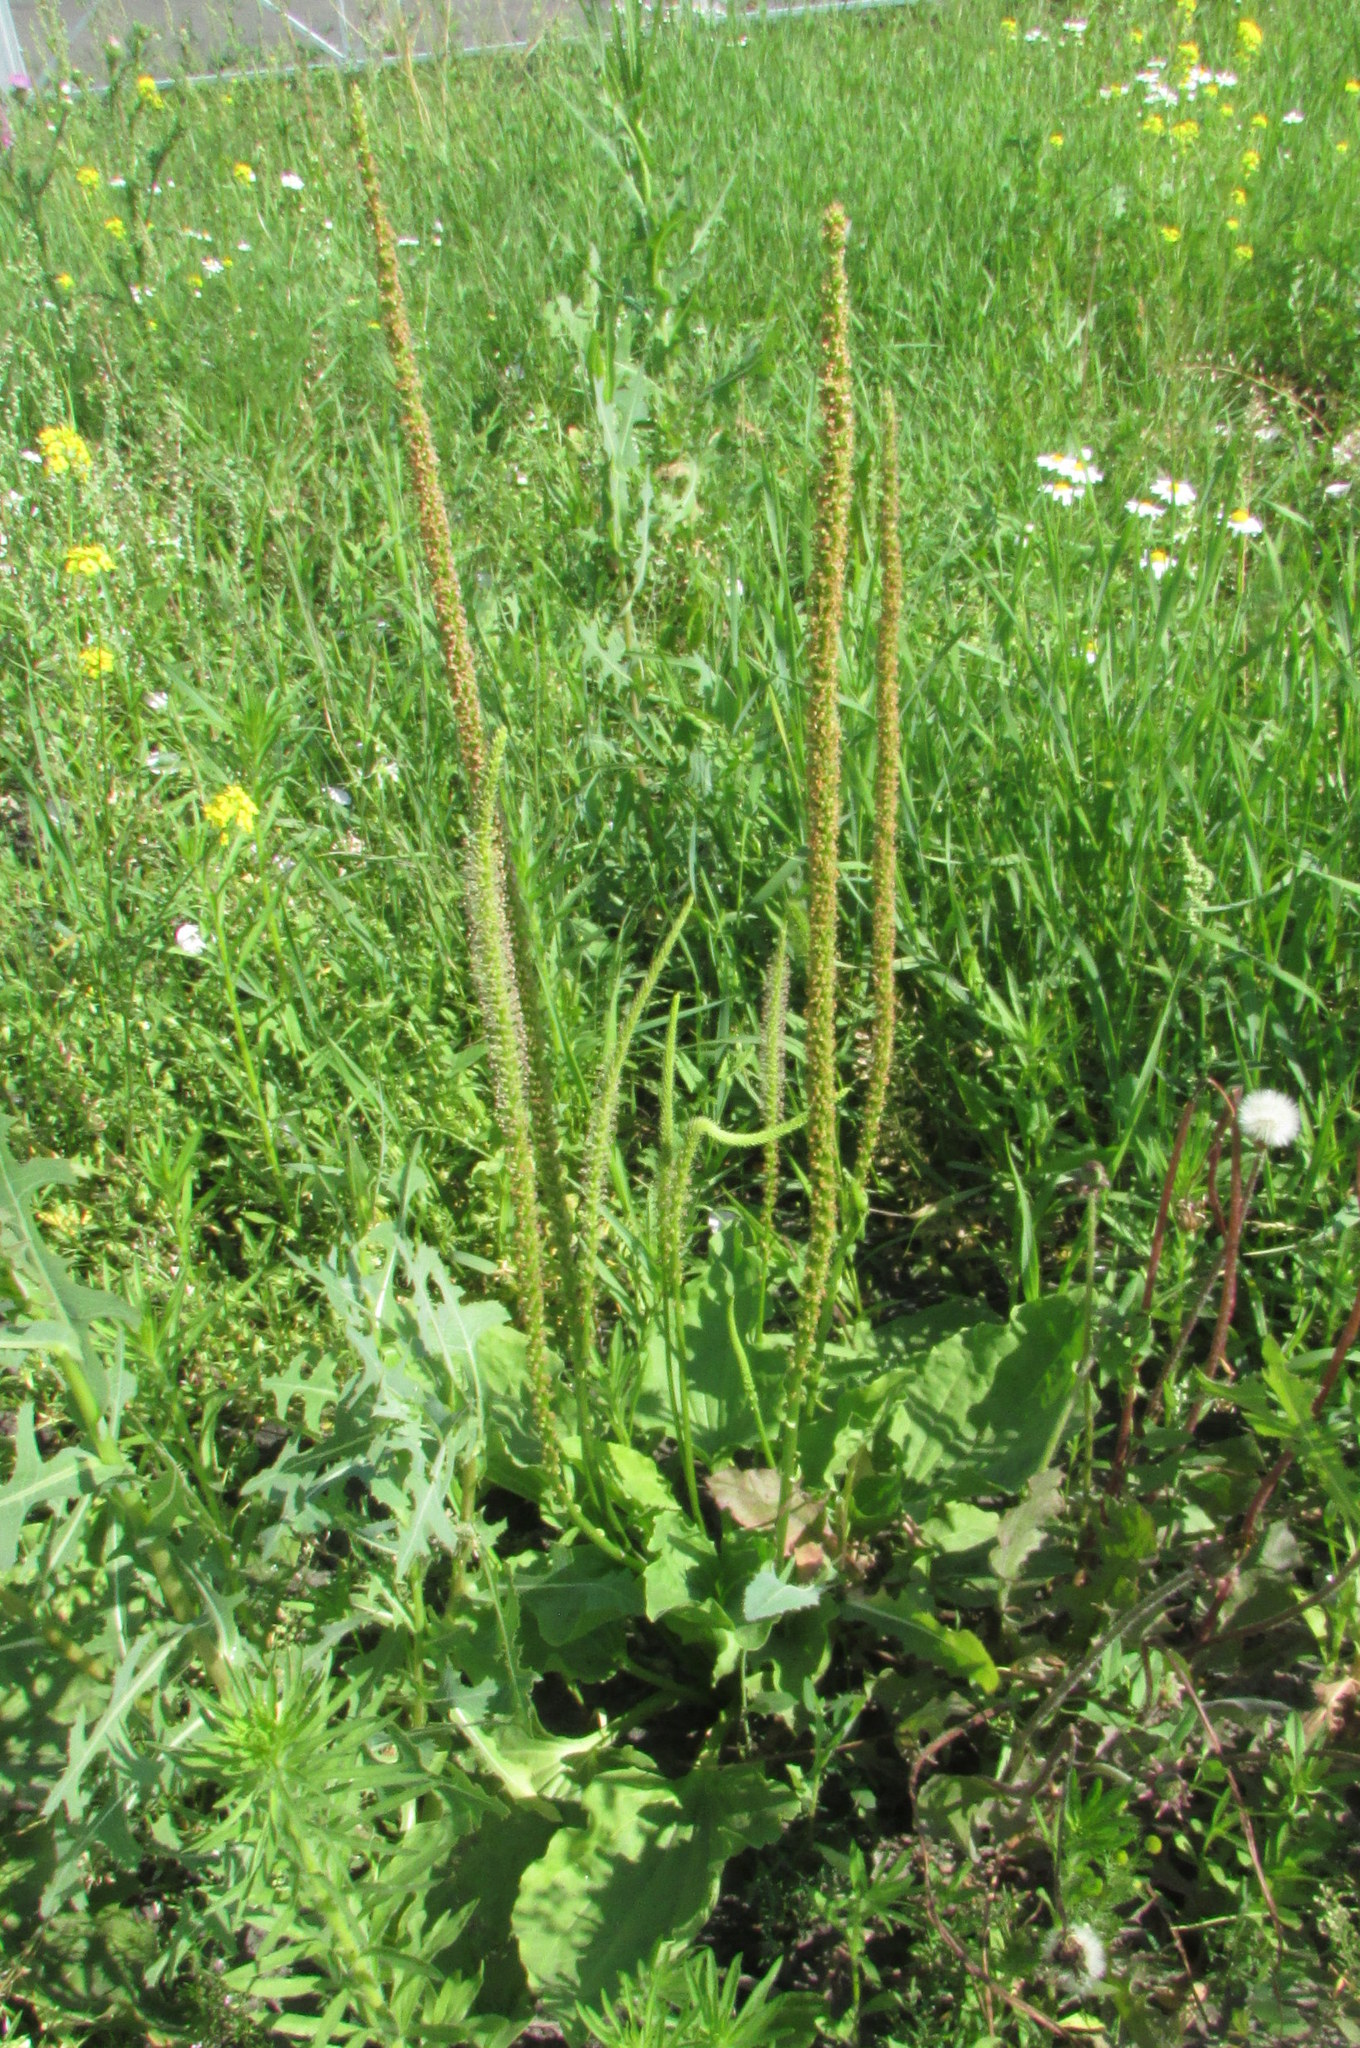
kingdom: Plantae
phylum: Tracheophyta
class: Magnoliopsida
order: Lamiales
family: Plantaginaceae
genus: Plantago
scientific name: Plantago major
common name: Common plantain
